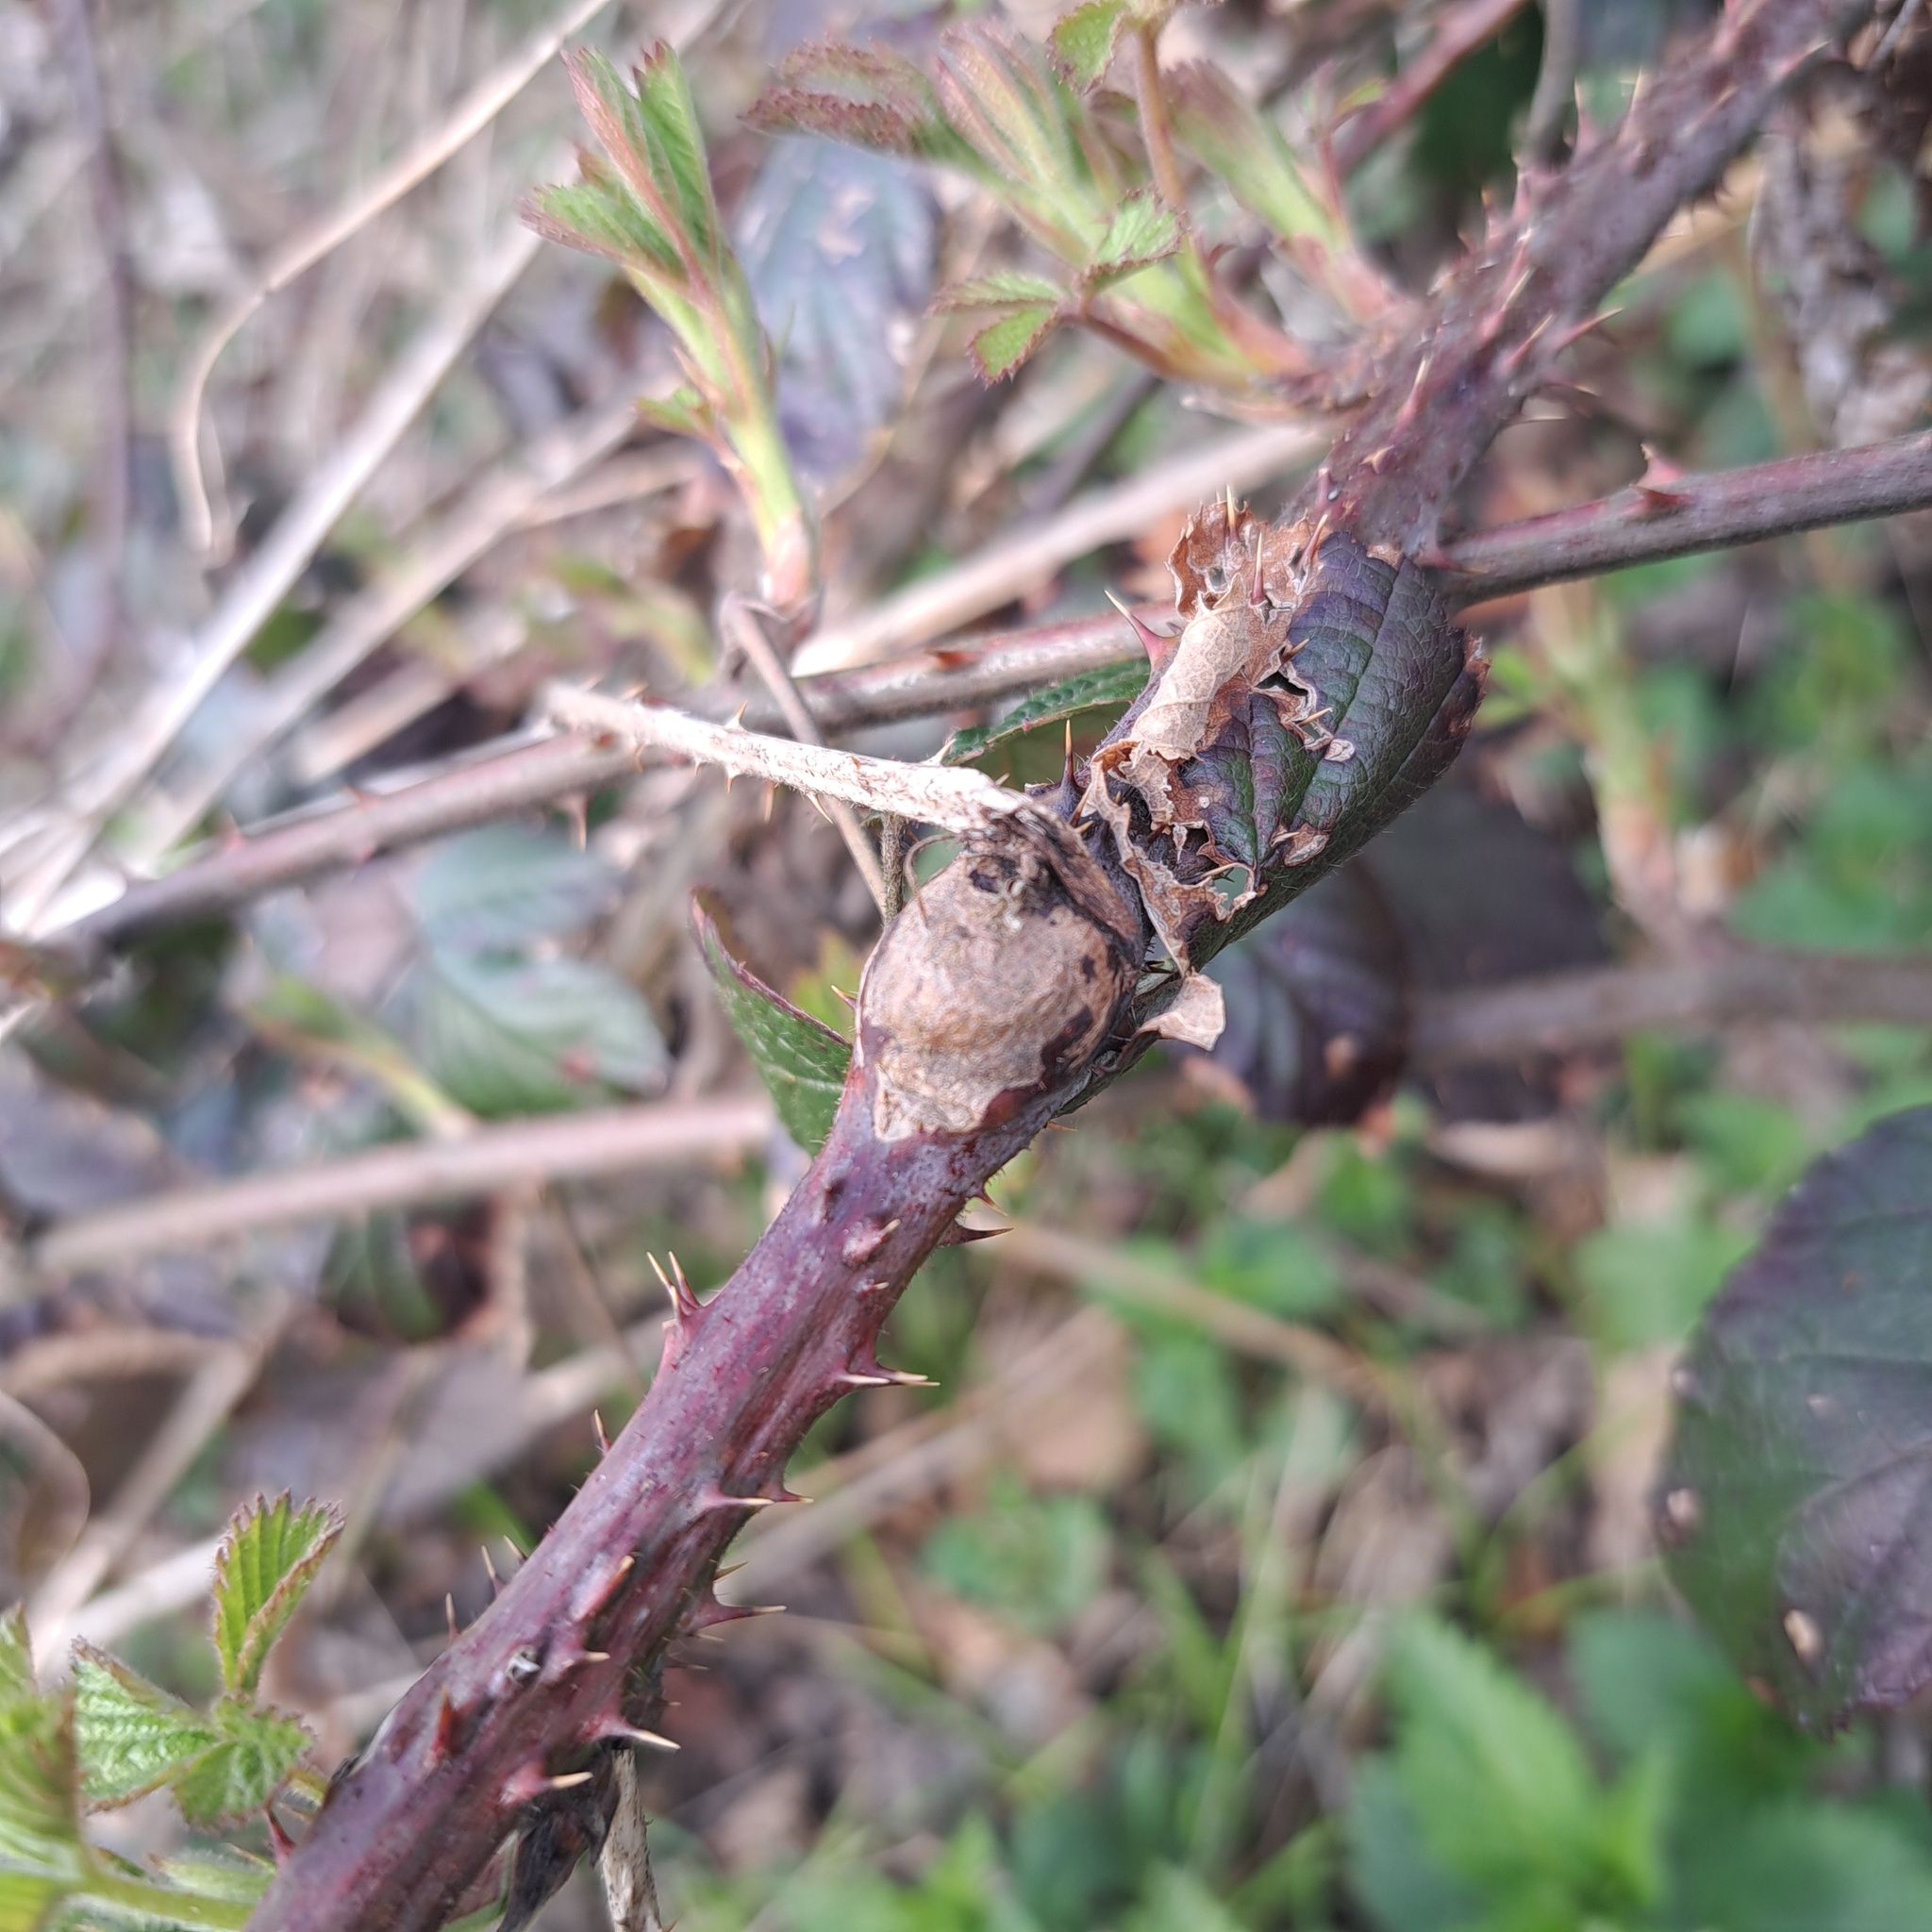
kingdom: Animalia
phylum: Arthropoda
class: Insecta
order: Diptera
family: Cecidomyiidae
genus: Lasioptera
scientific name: Lasioptera rubi
